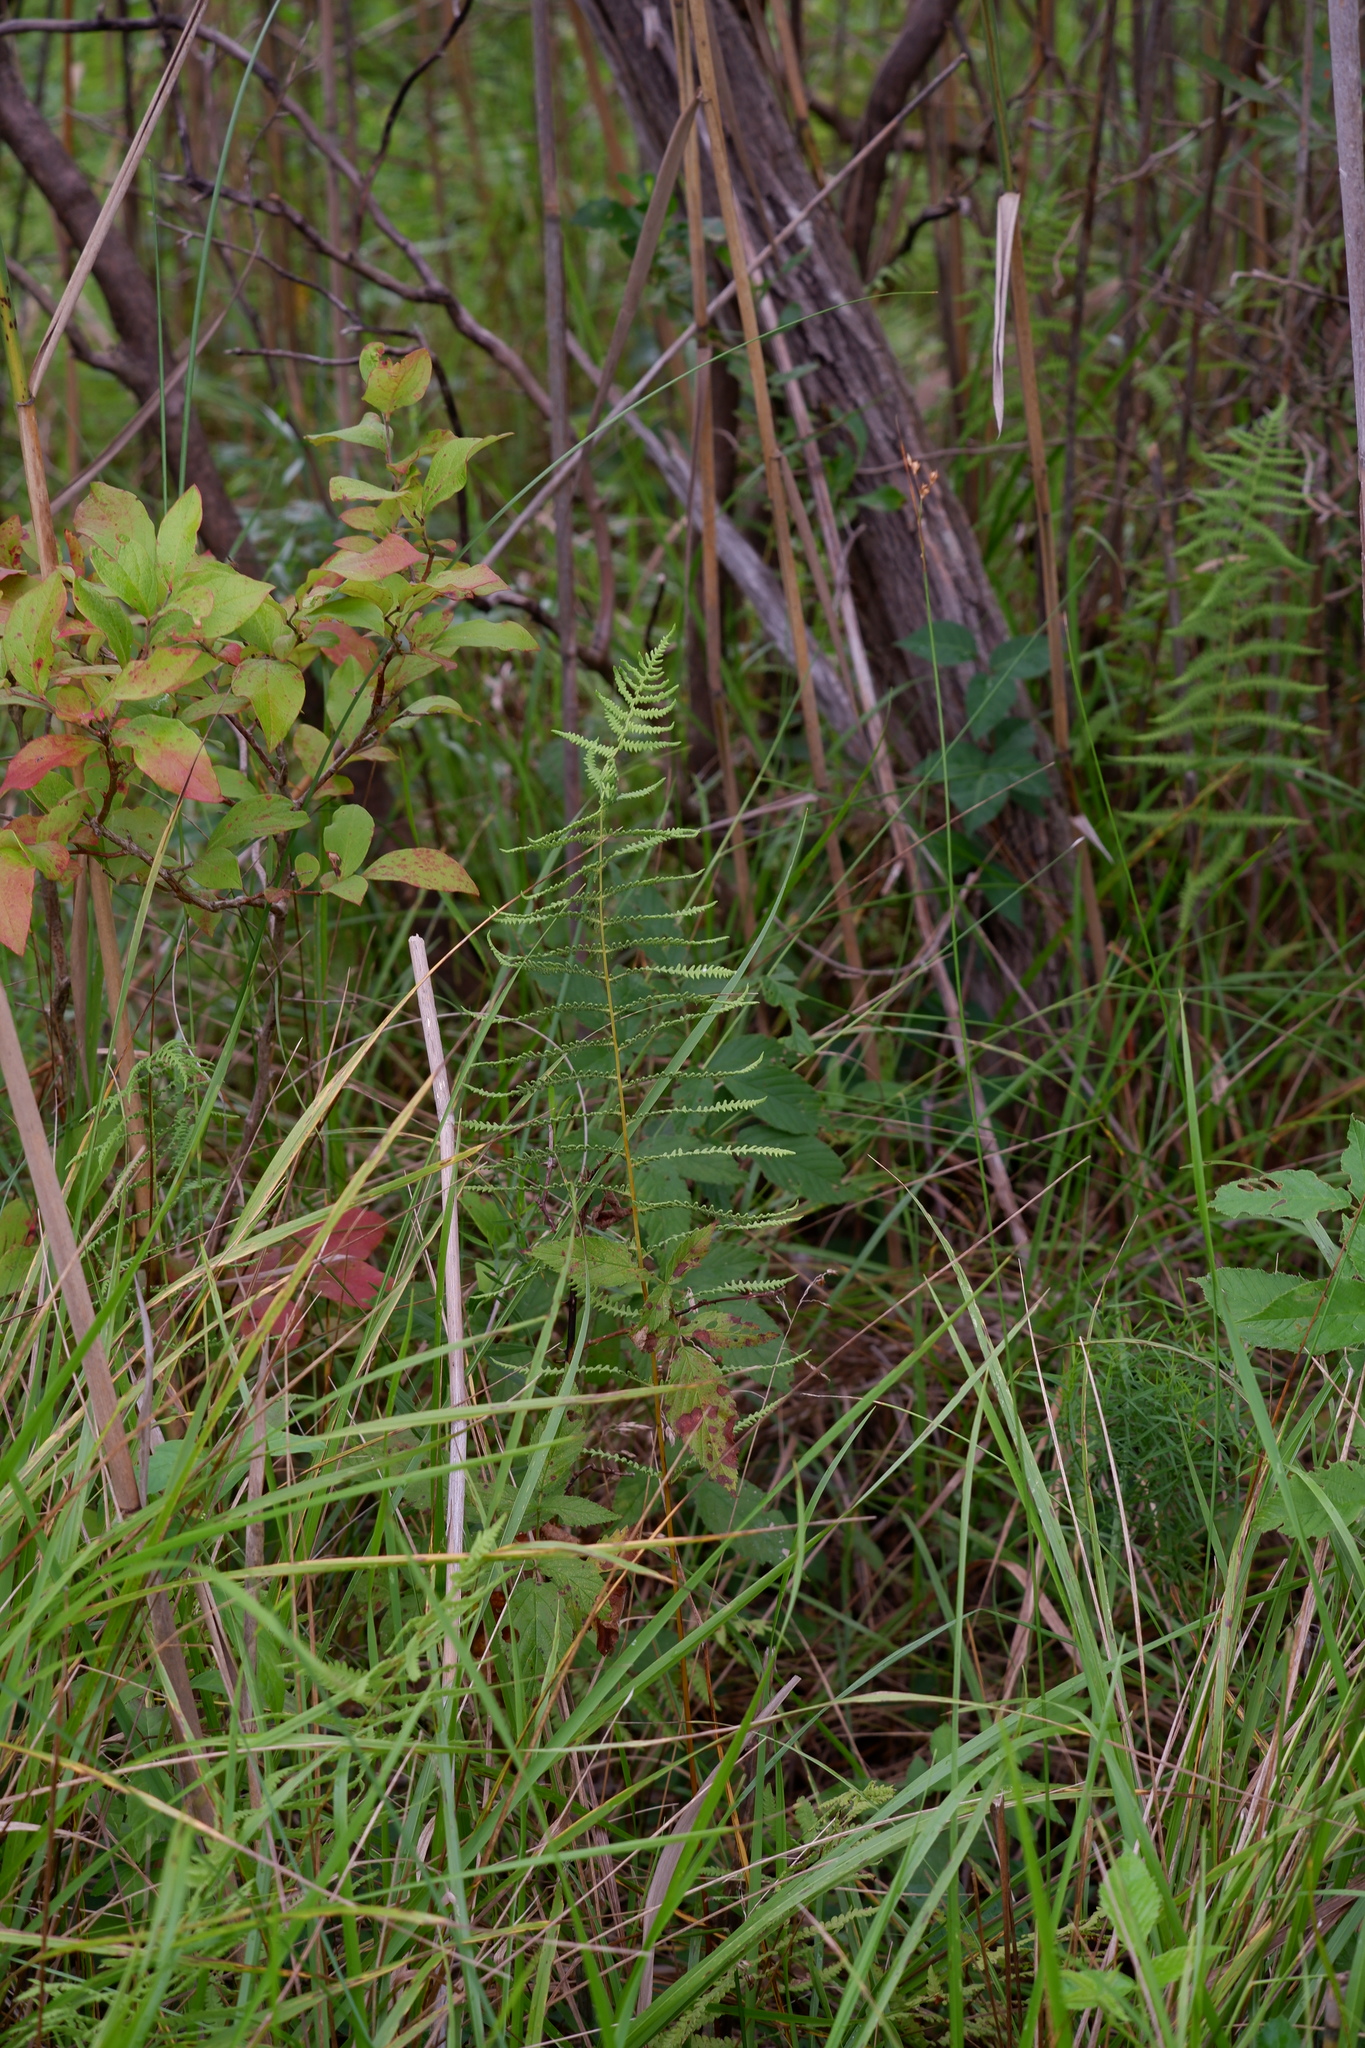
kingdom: Plantae
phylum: Tracheophyta
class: Polypodiopsida
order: Polypodiales
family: Thelypteridaceae
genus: Thelypteris
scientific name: Thelypteris palustris
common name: Marsh fern
